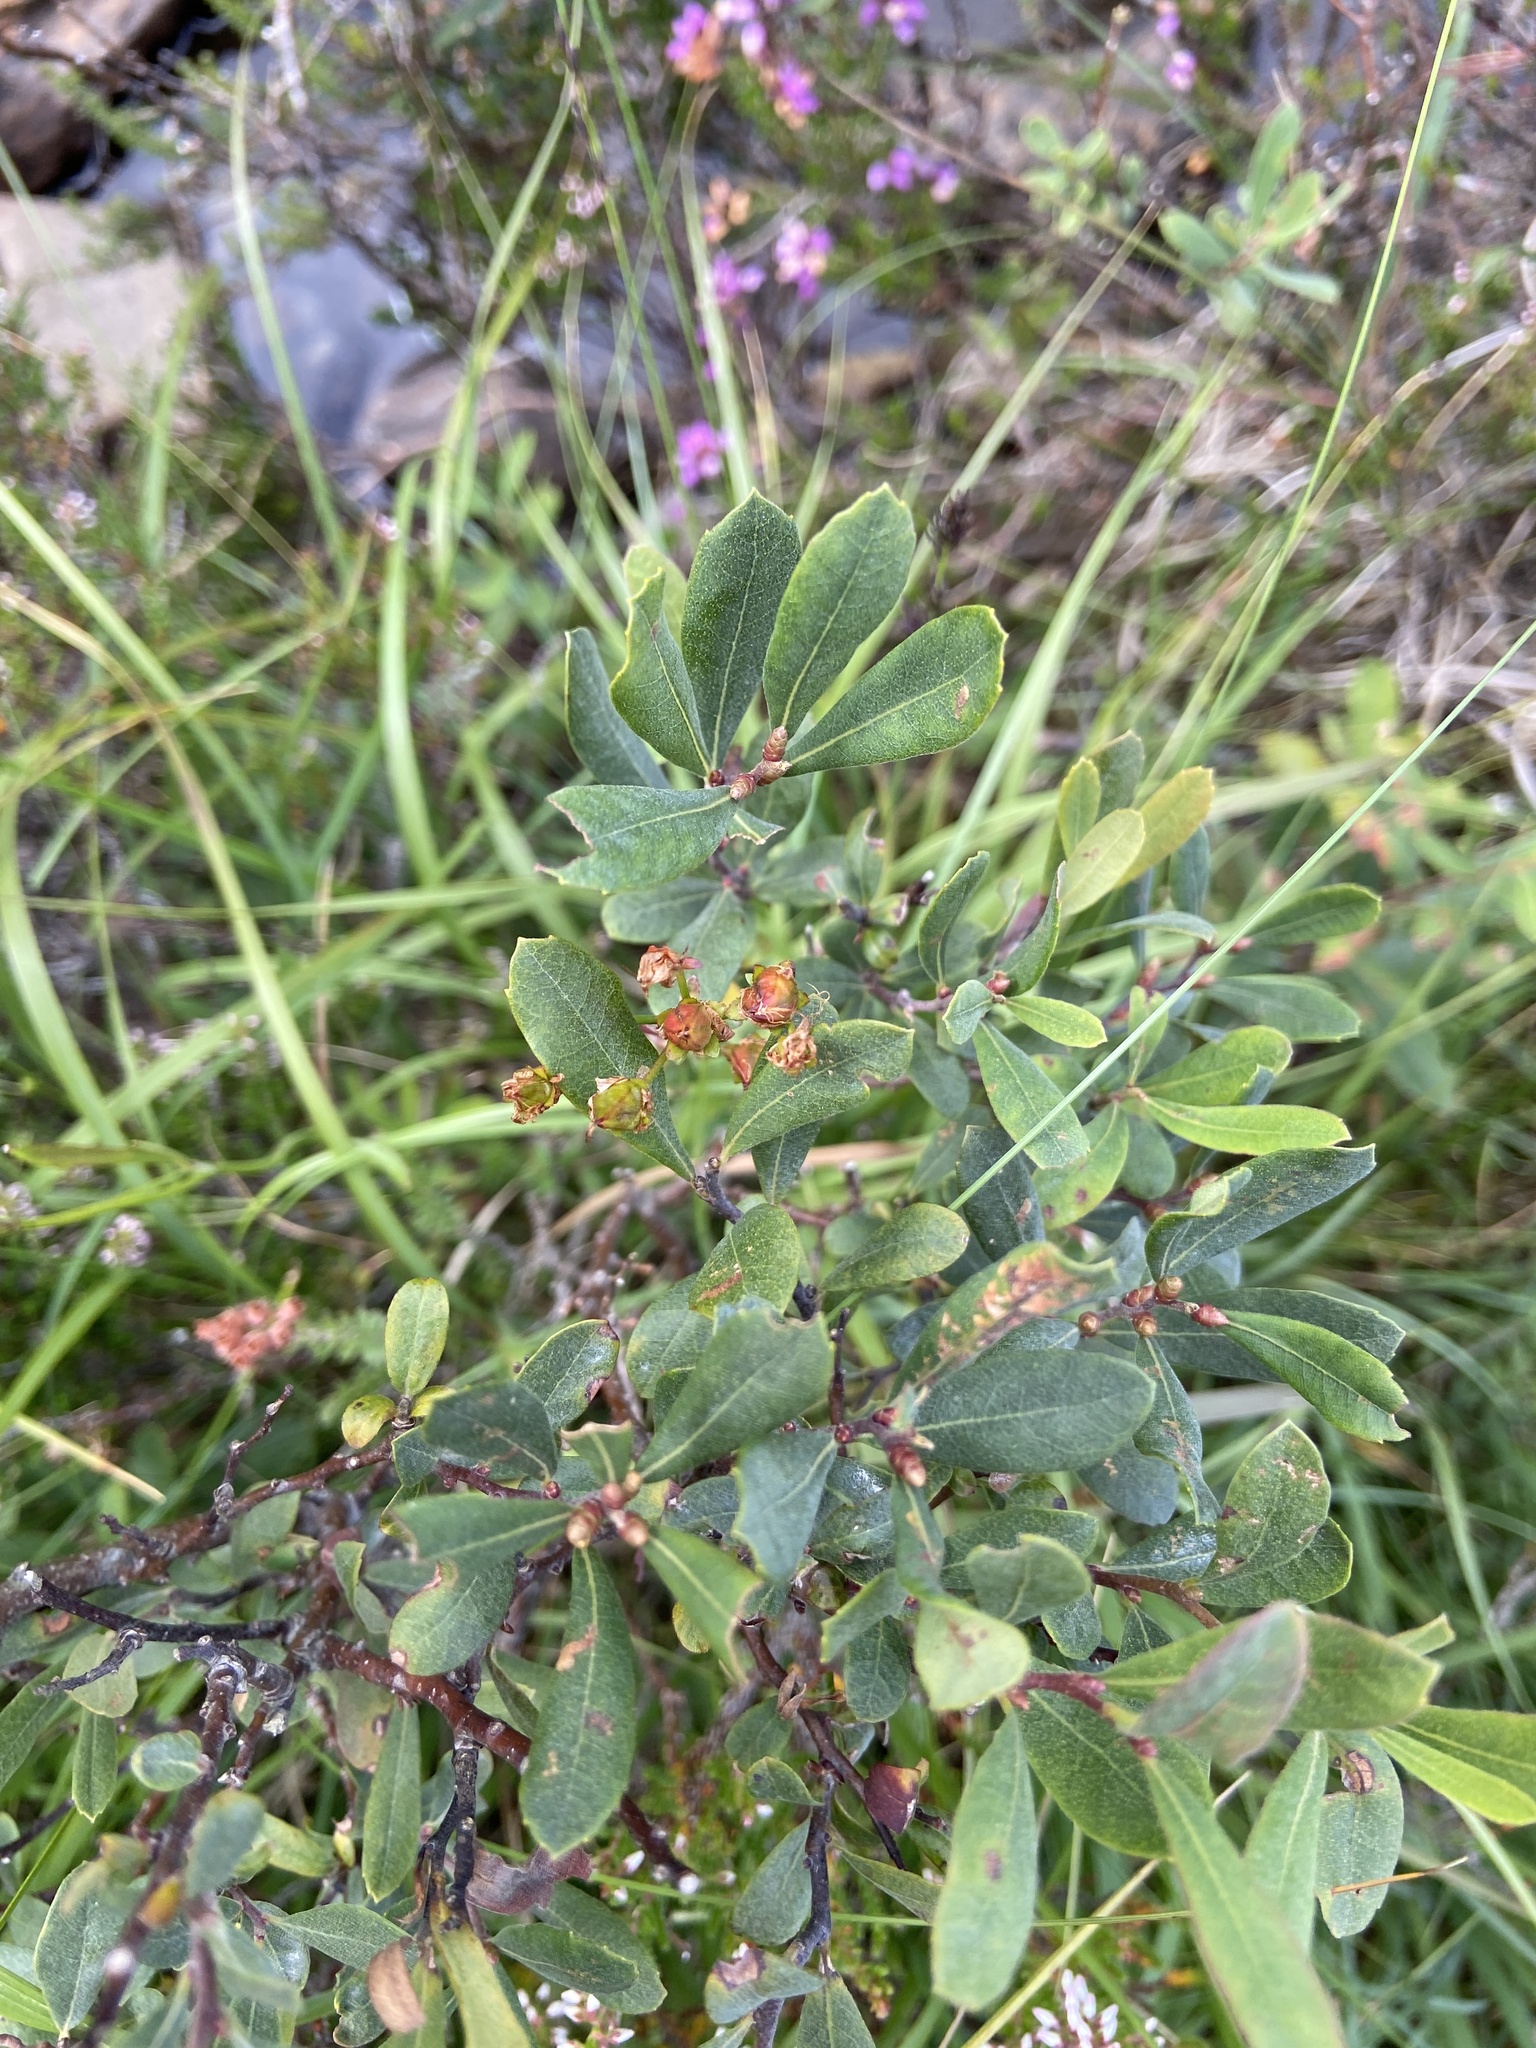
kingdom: Plantae
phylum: Tracheophyta
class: Magnoliopsida
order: Fagales
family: Myricaceae
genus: Myrica
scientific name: Myrica gale
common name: Sweet gale
